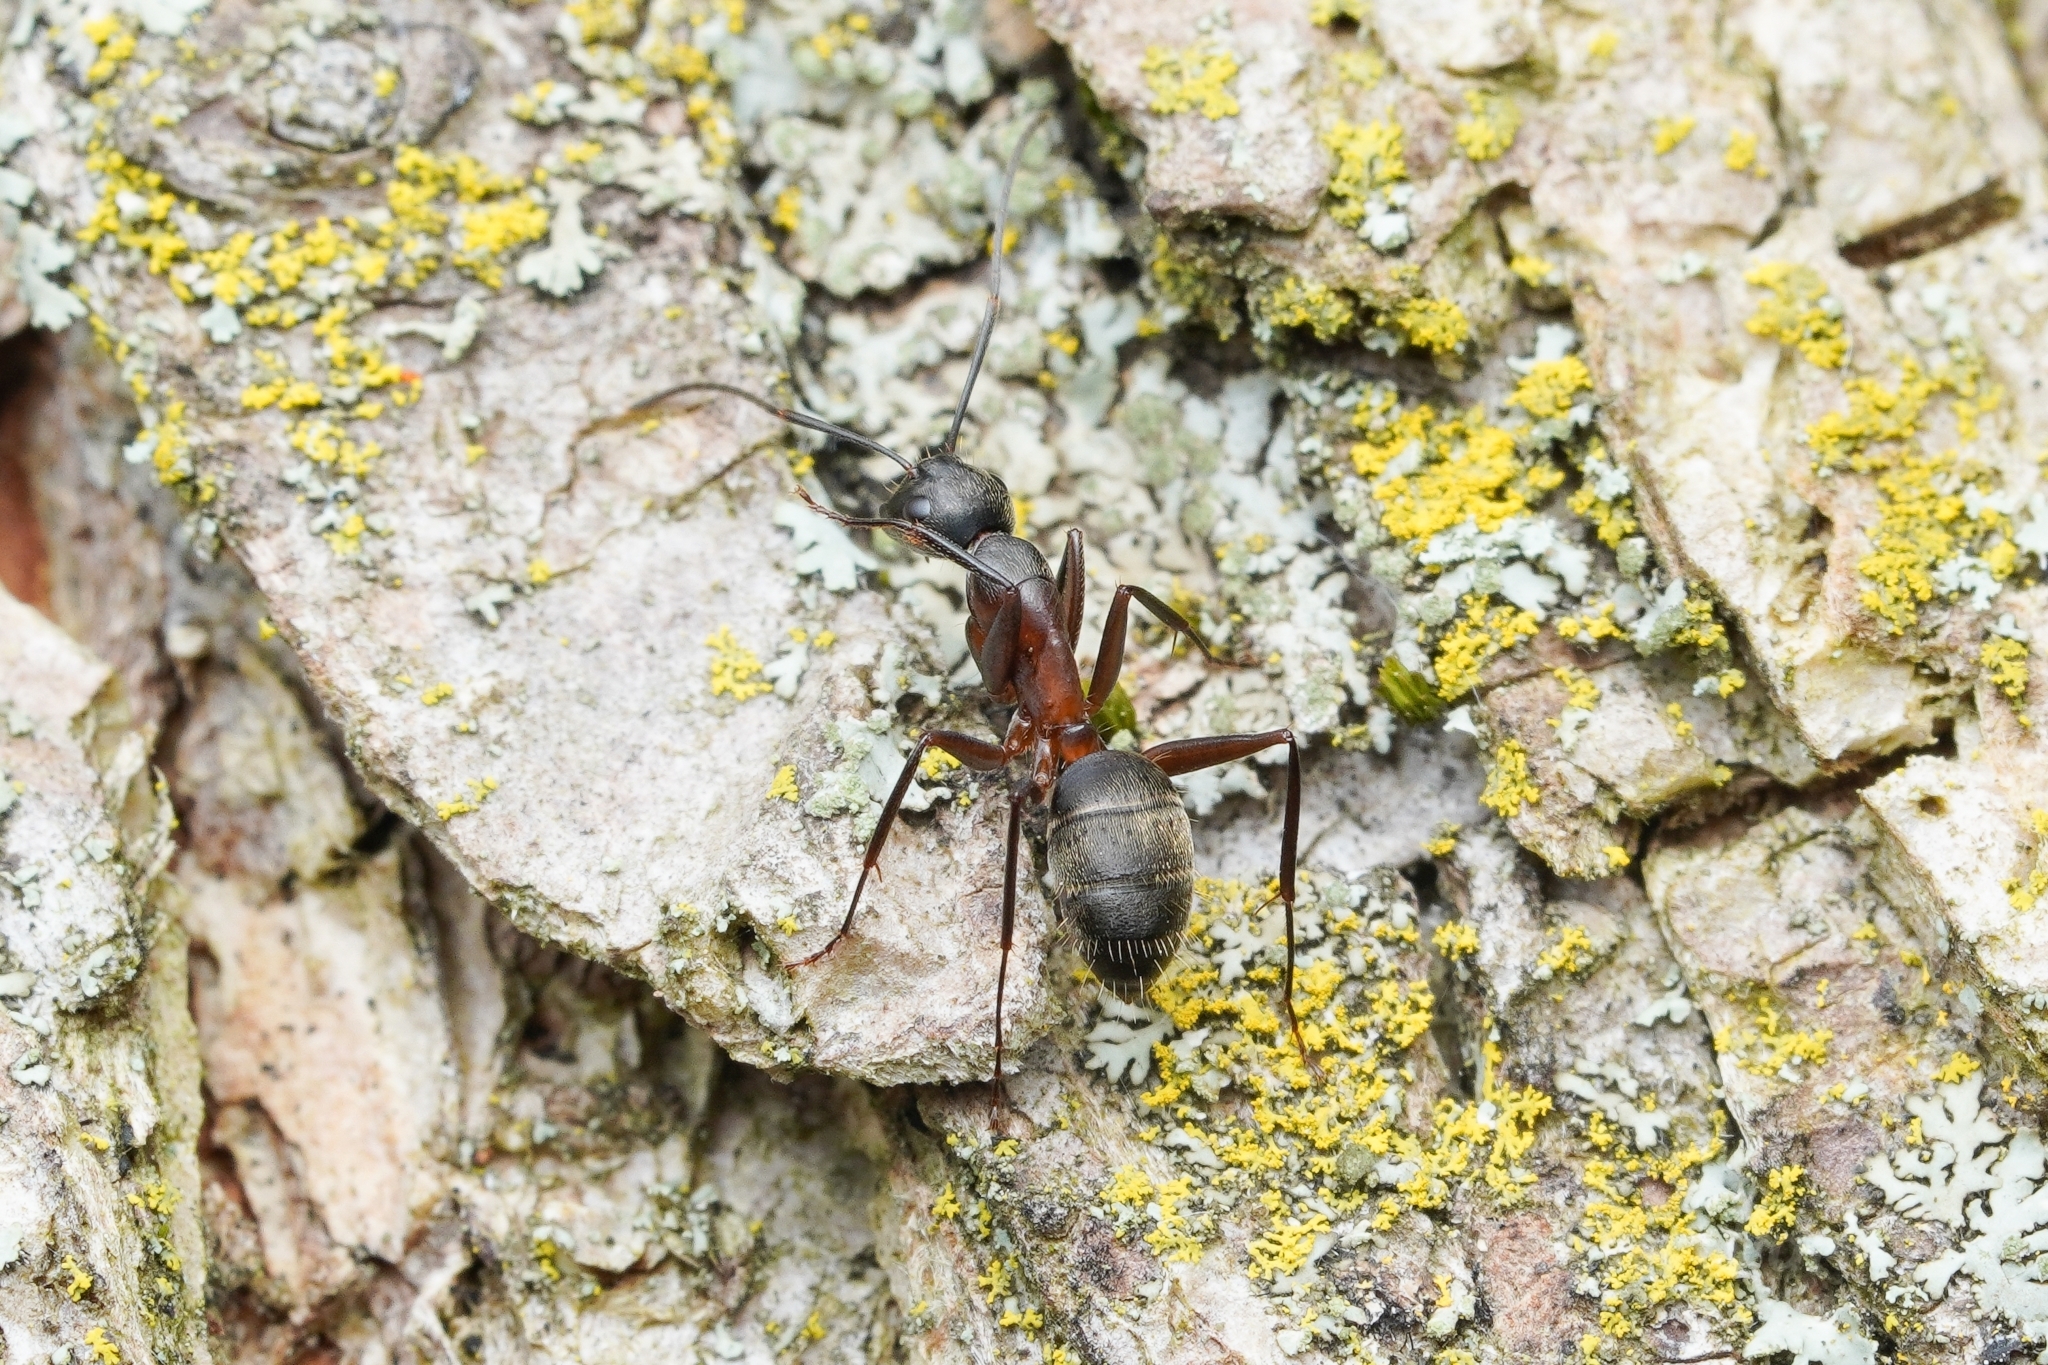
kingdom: Animalia
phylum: Arthropoda
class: Insecta
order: Hymenoptera
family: Formicidae
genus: Camponotus
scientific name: Camponotus chromaiodes
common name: Red carpenter ant
